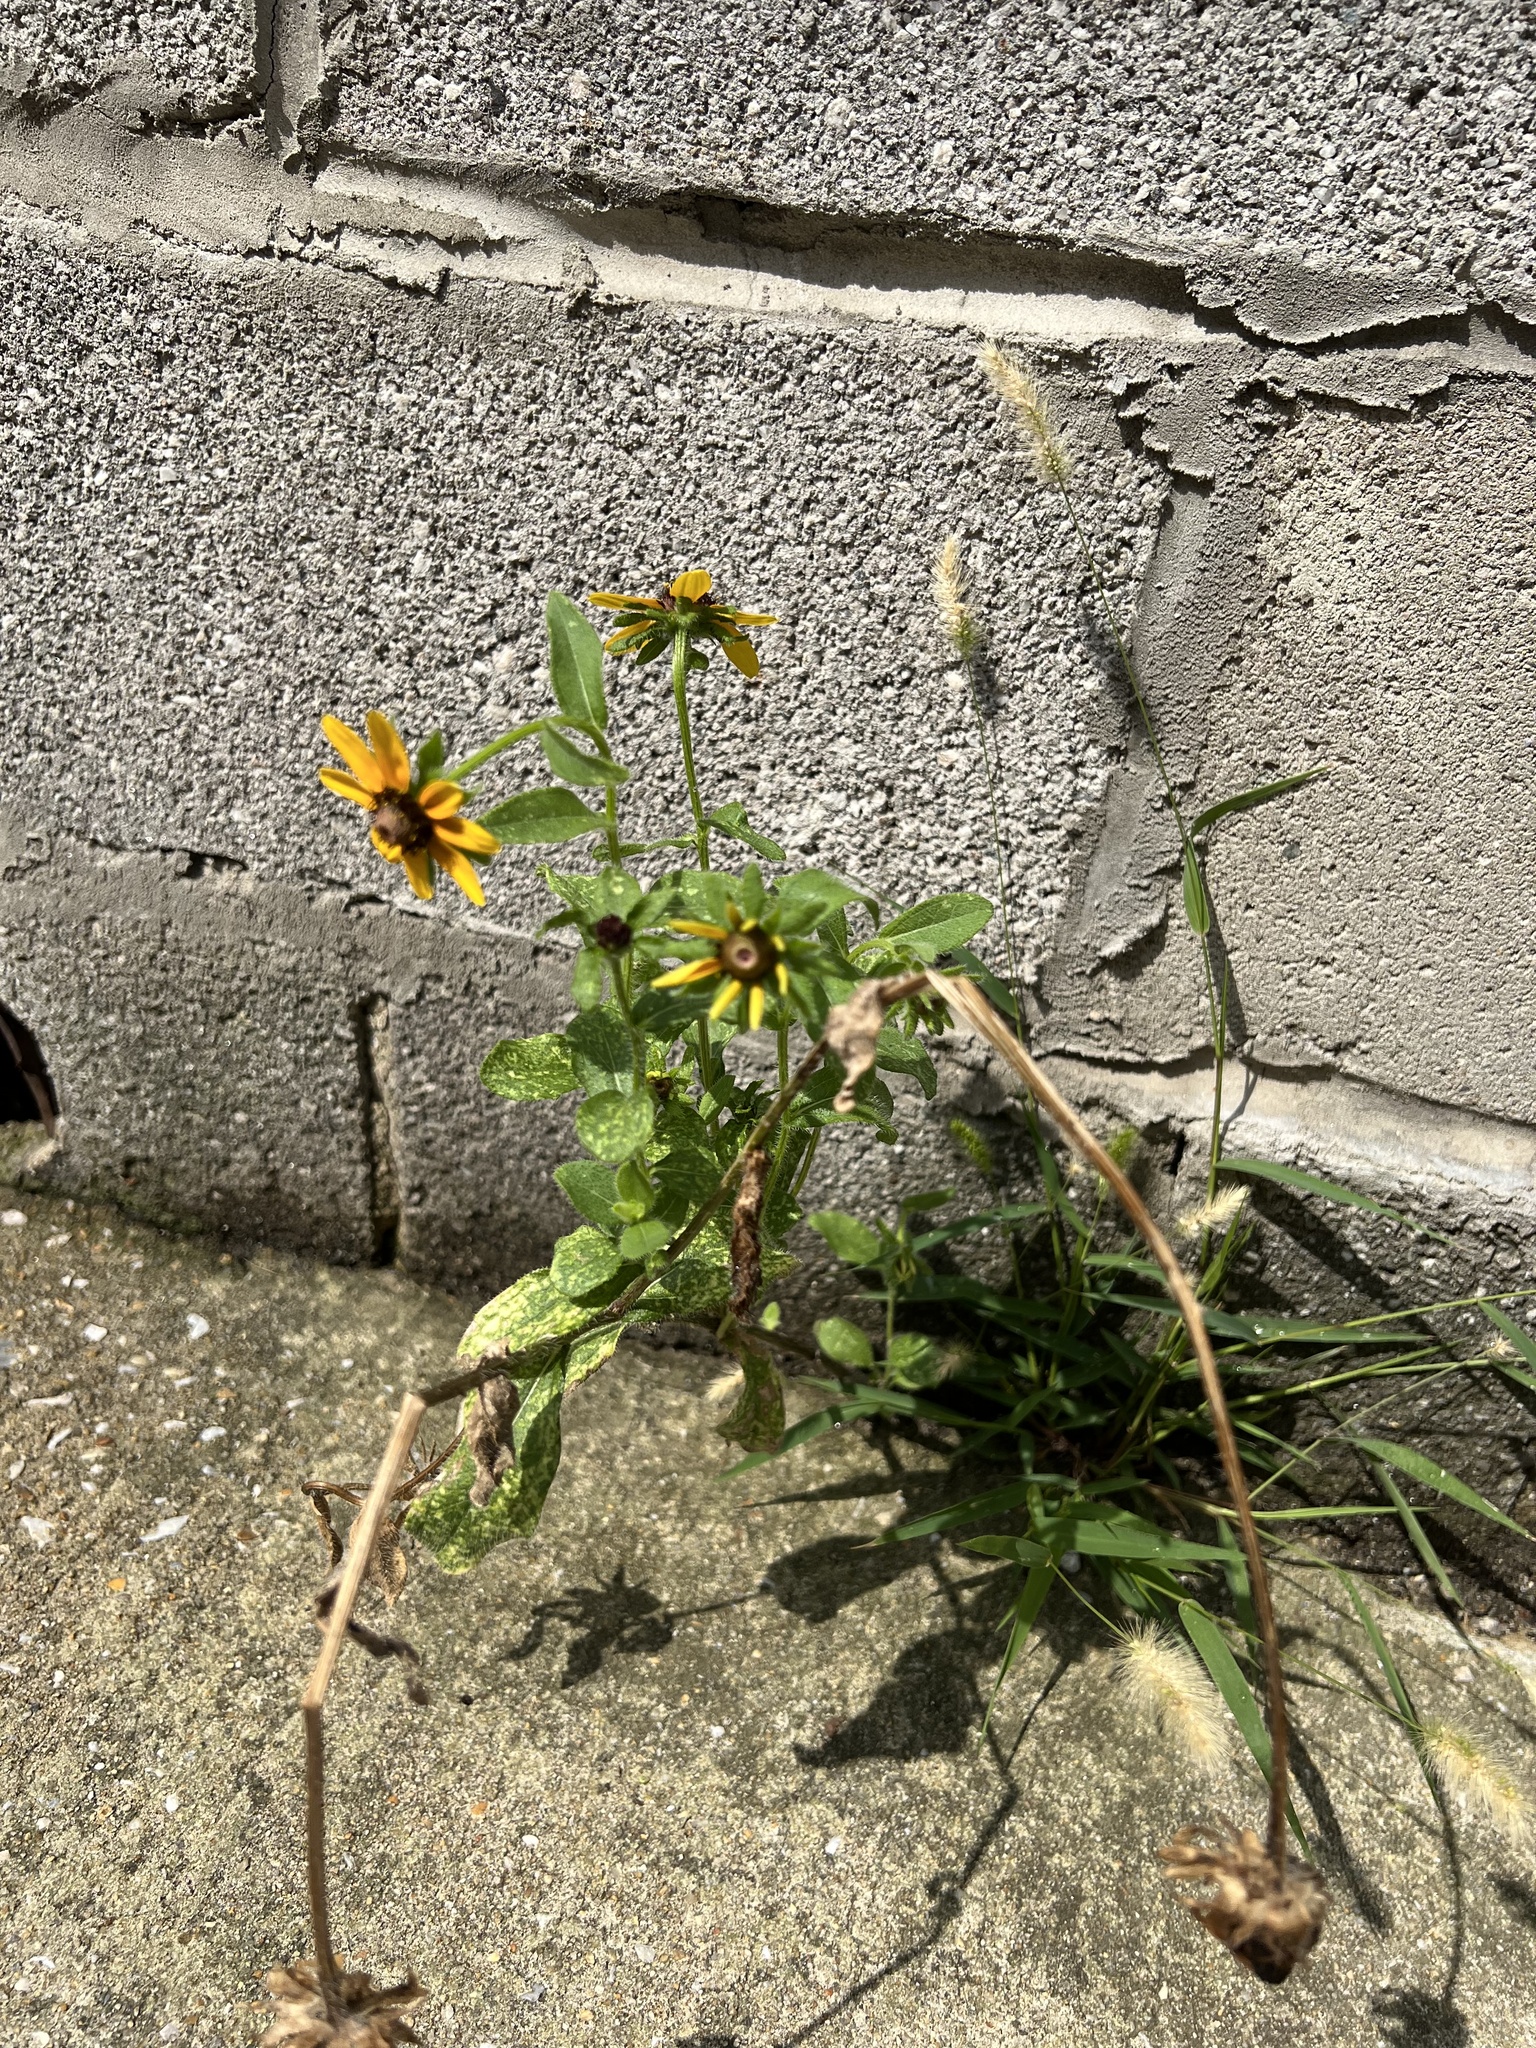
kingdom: Plantae
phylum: Tracheophyta
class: Magnoliopsida
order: Asterales
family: Asteraceae
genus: Rudbeckia
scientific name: Rudbeckia hirta
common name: Black-eyed-susan
